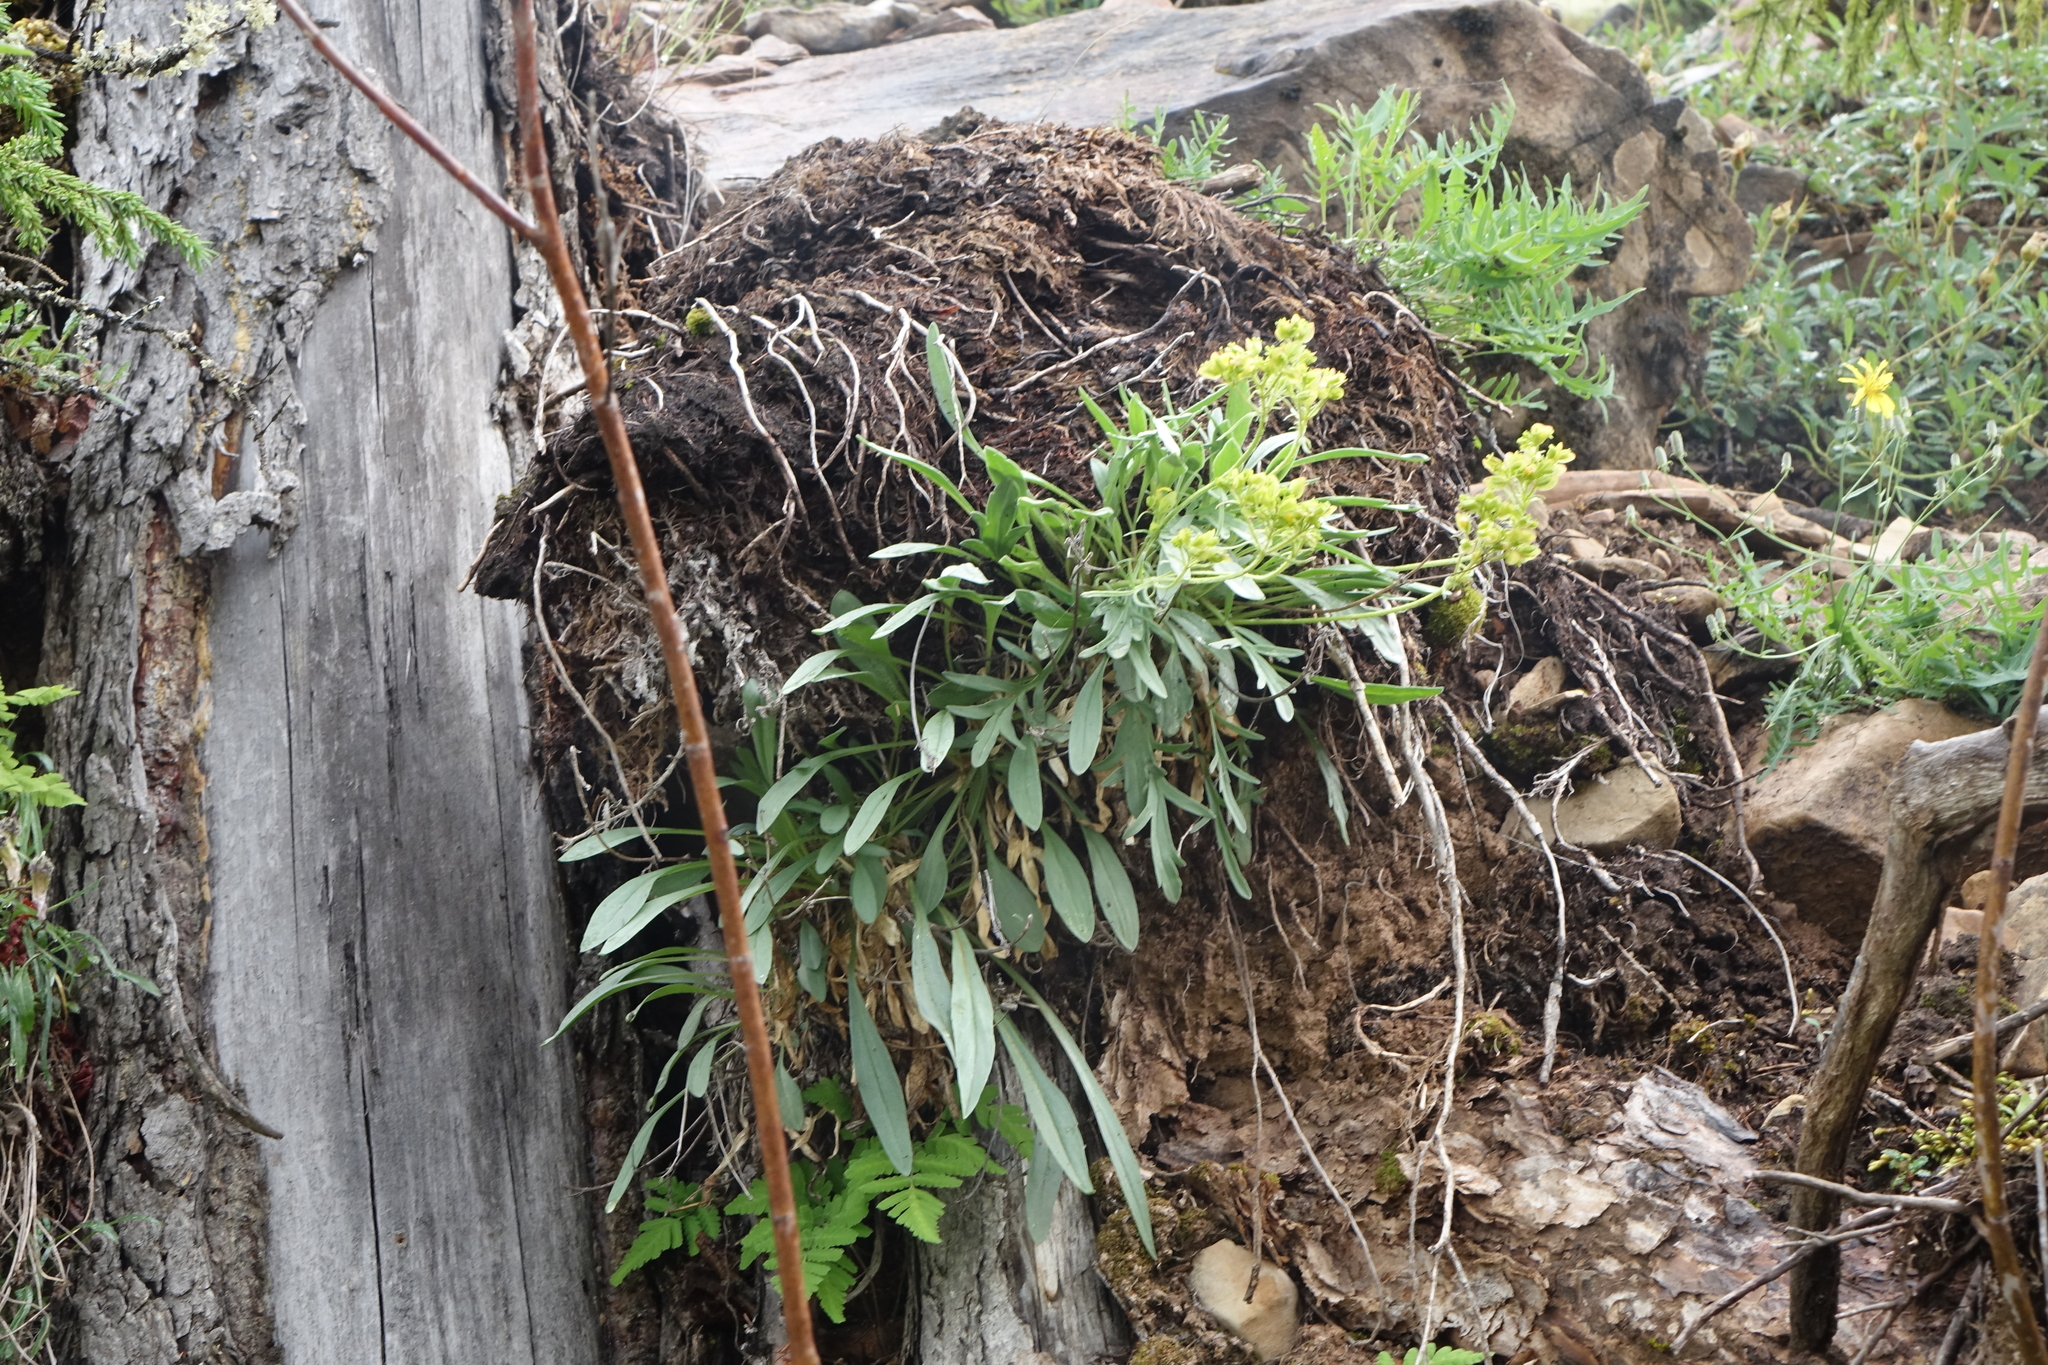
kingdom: Plantae
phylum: Tracheophyta
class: Magnoliopsida
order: Dipsacales
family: Caprifoliaceae
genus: Patrinia
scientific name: Patrinia sibirica
